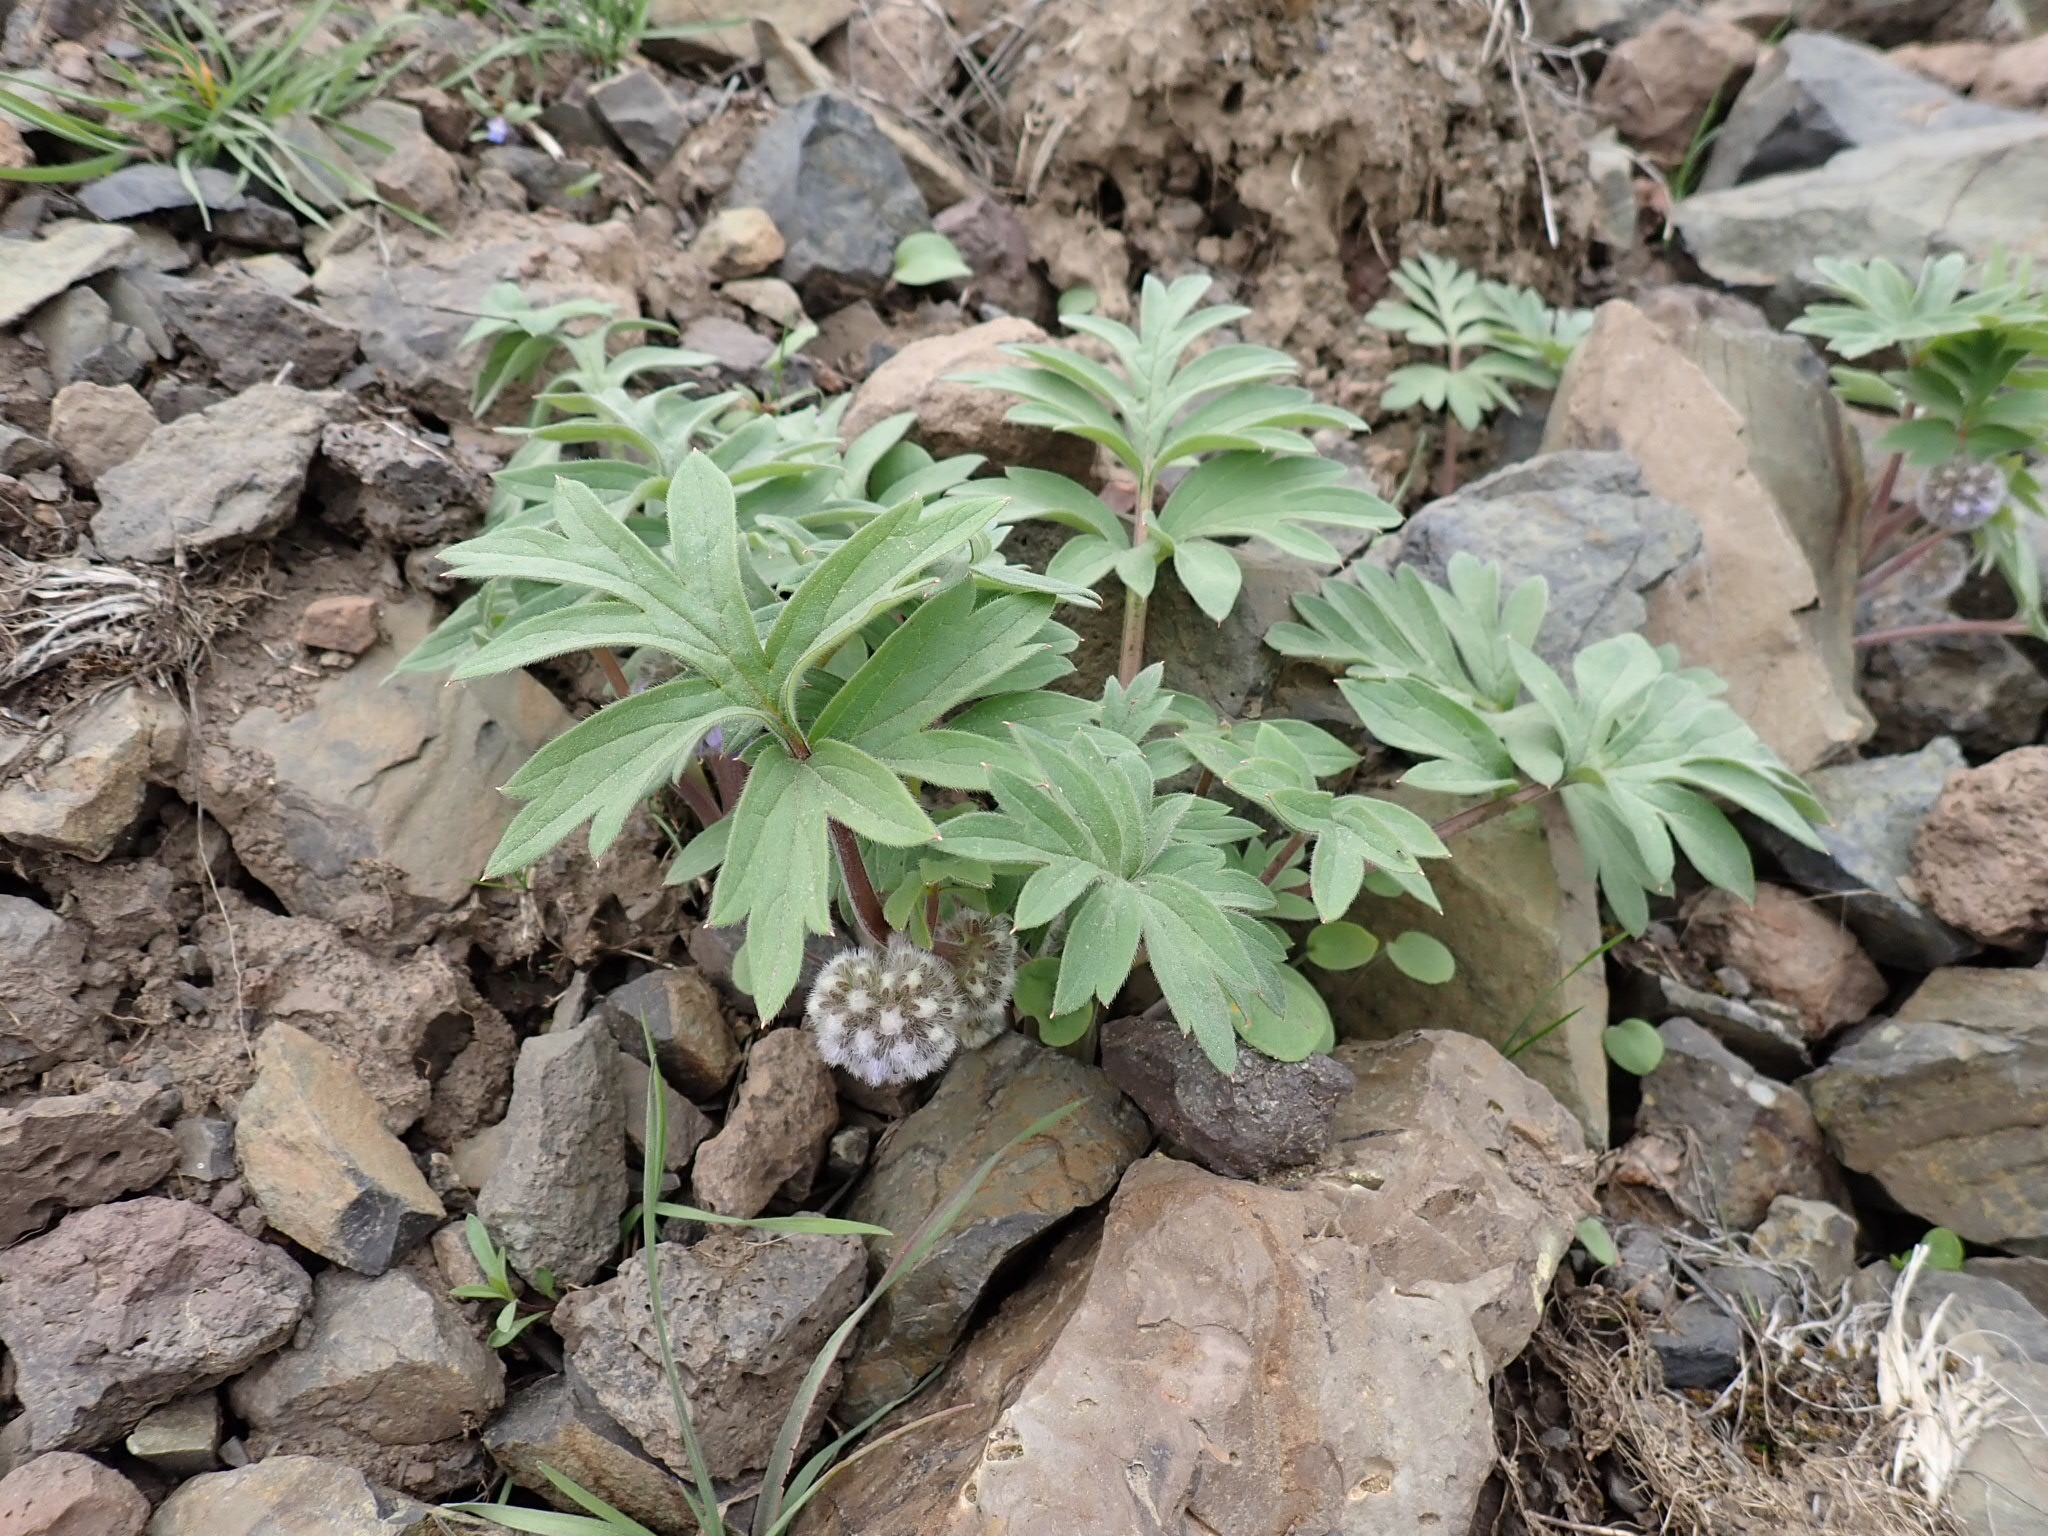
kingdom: Plantae
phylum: Tracheophyta
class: Magnoliopsida
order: Boraginales
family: Hydrophyllaceae
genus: Hydrophyllum
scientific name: Hydrophyllum capitatum
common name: Woollen-breeches
